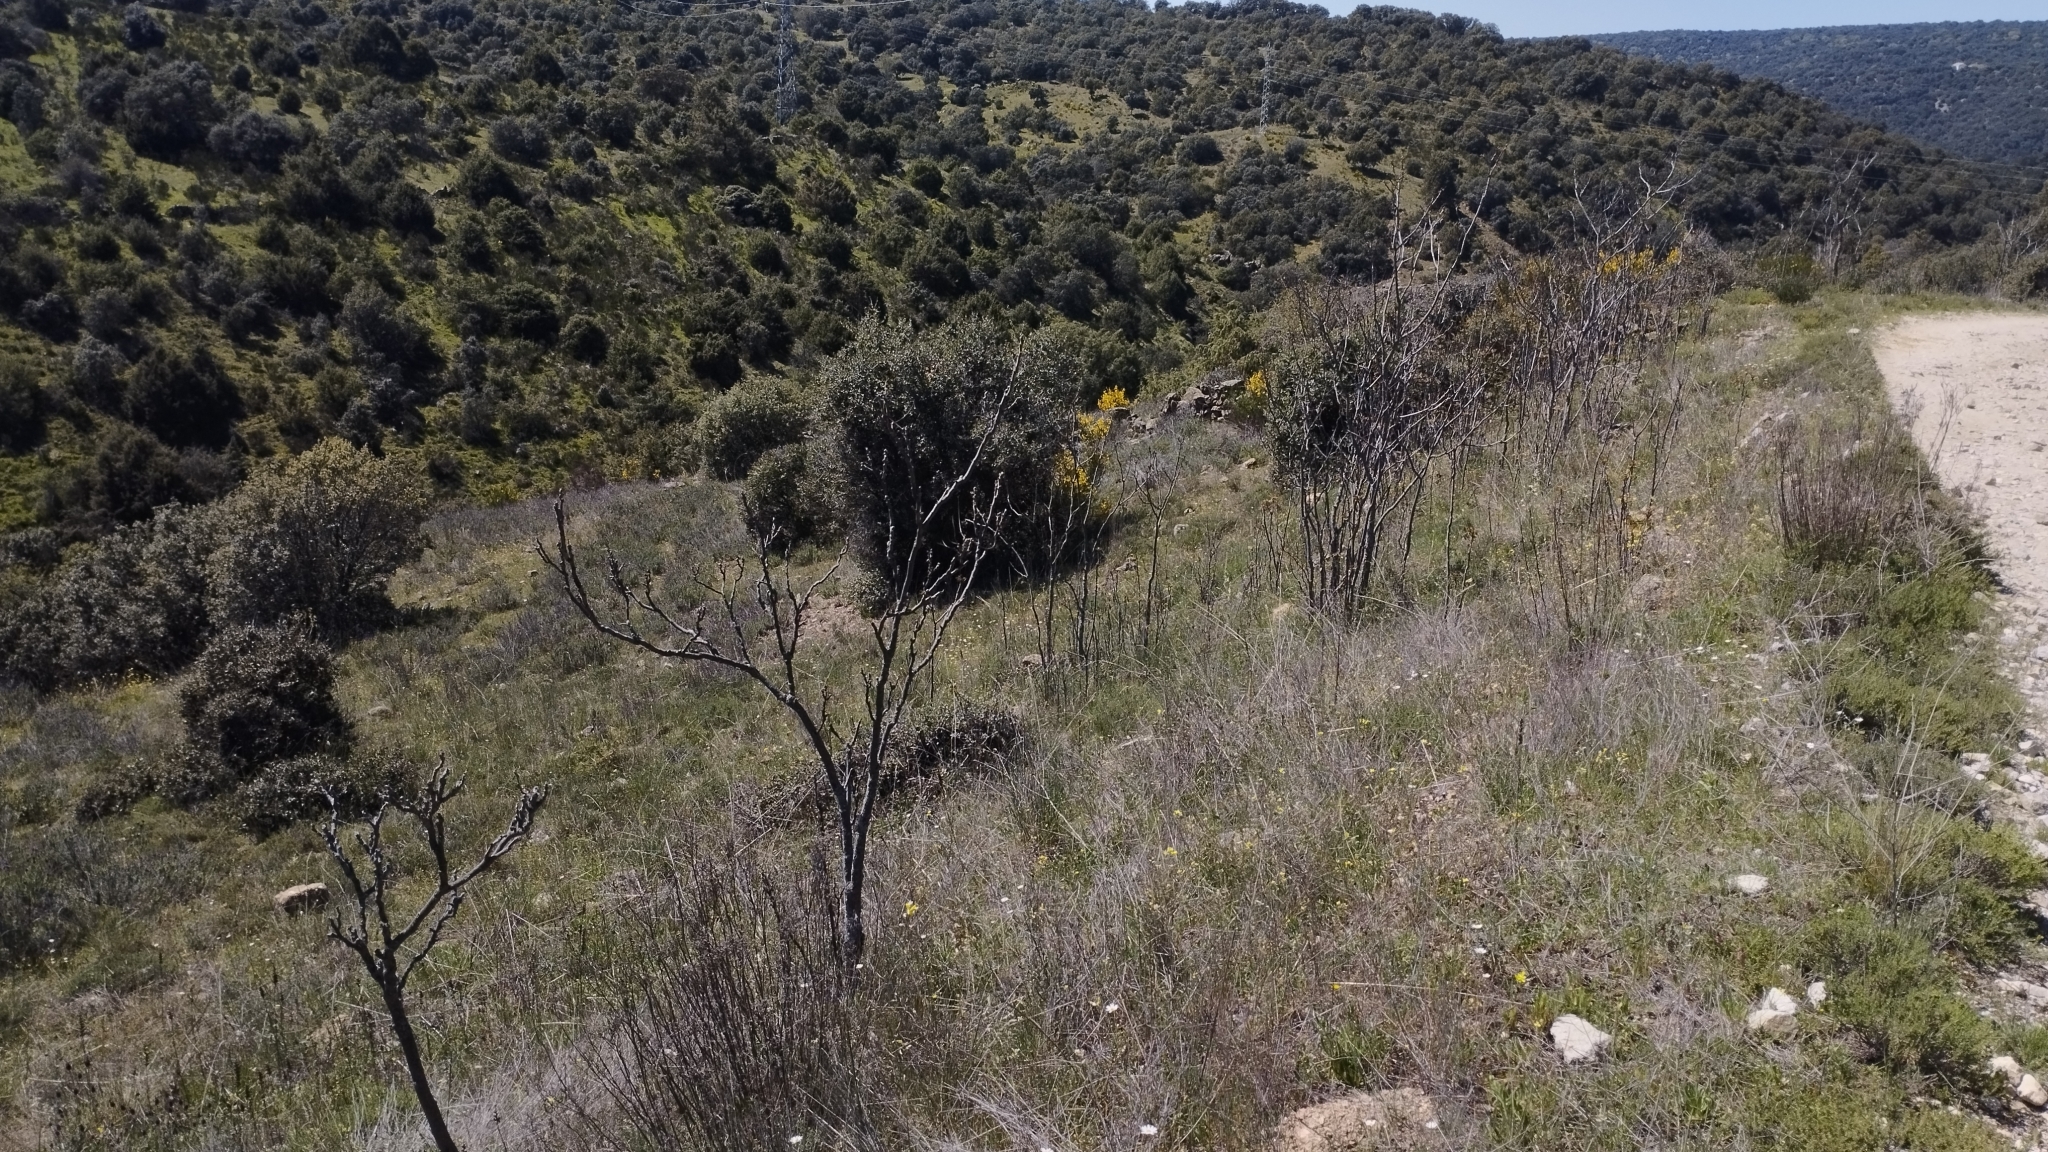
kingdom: Plantae
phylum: Tracheophyta
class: Magnoliopsida
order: Sapindales
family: Simaroubaceae
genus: Ailanthus
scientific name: Ailanthus altissima
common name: Tree-of-heaven
